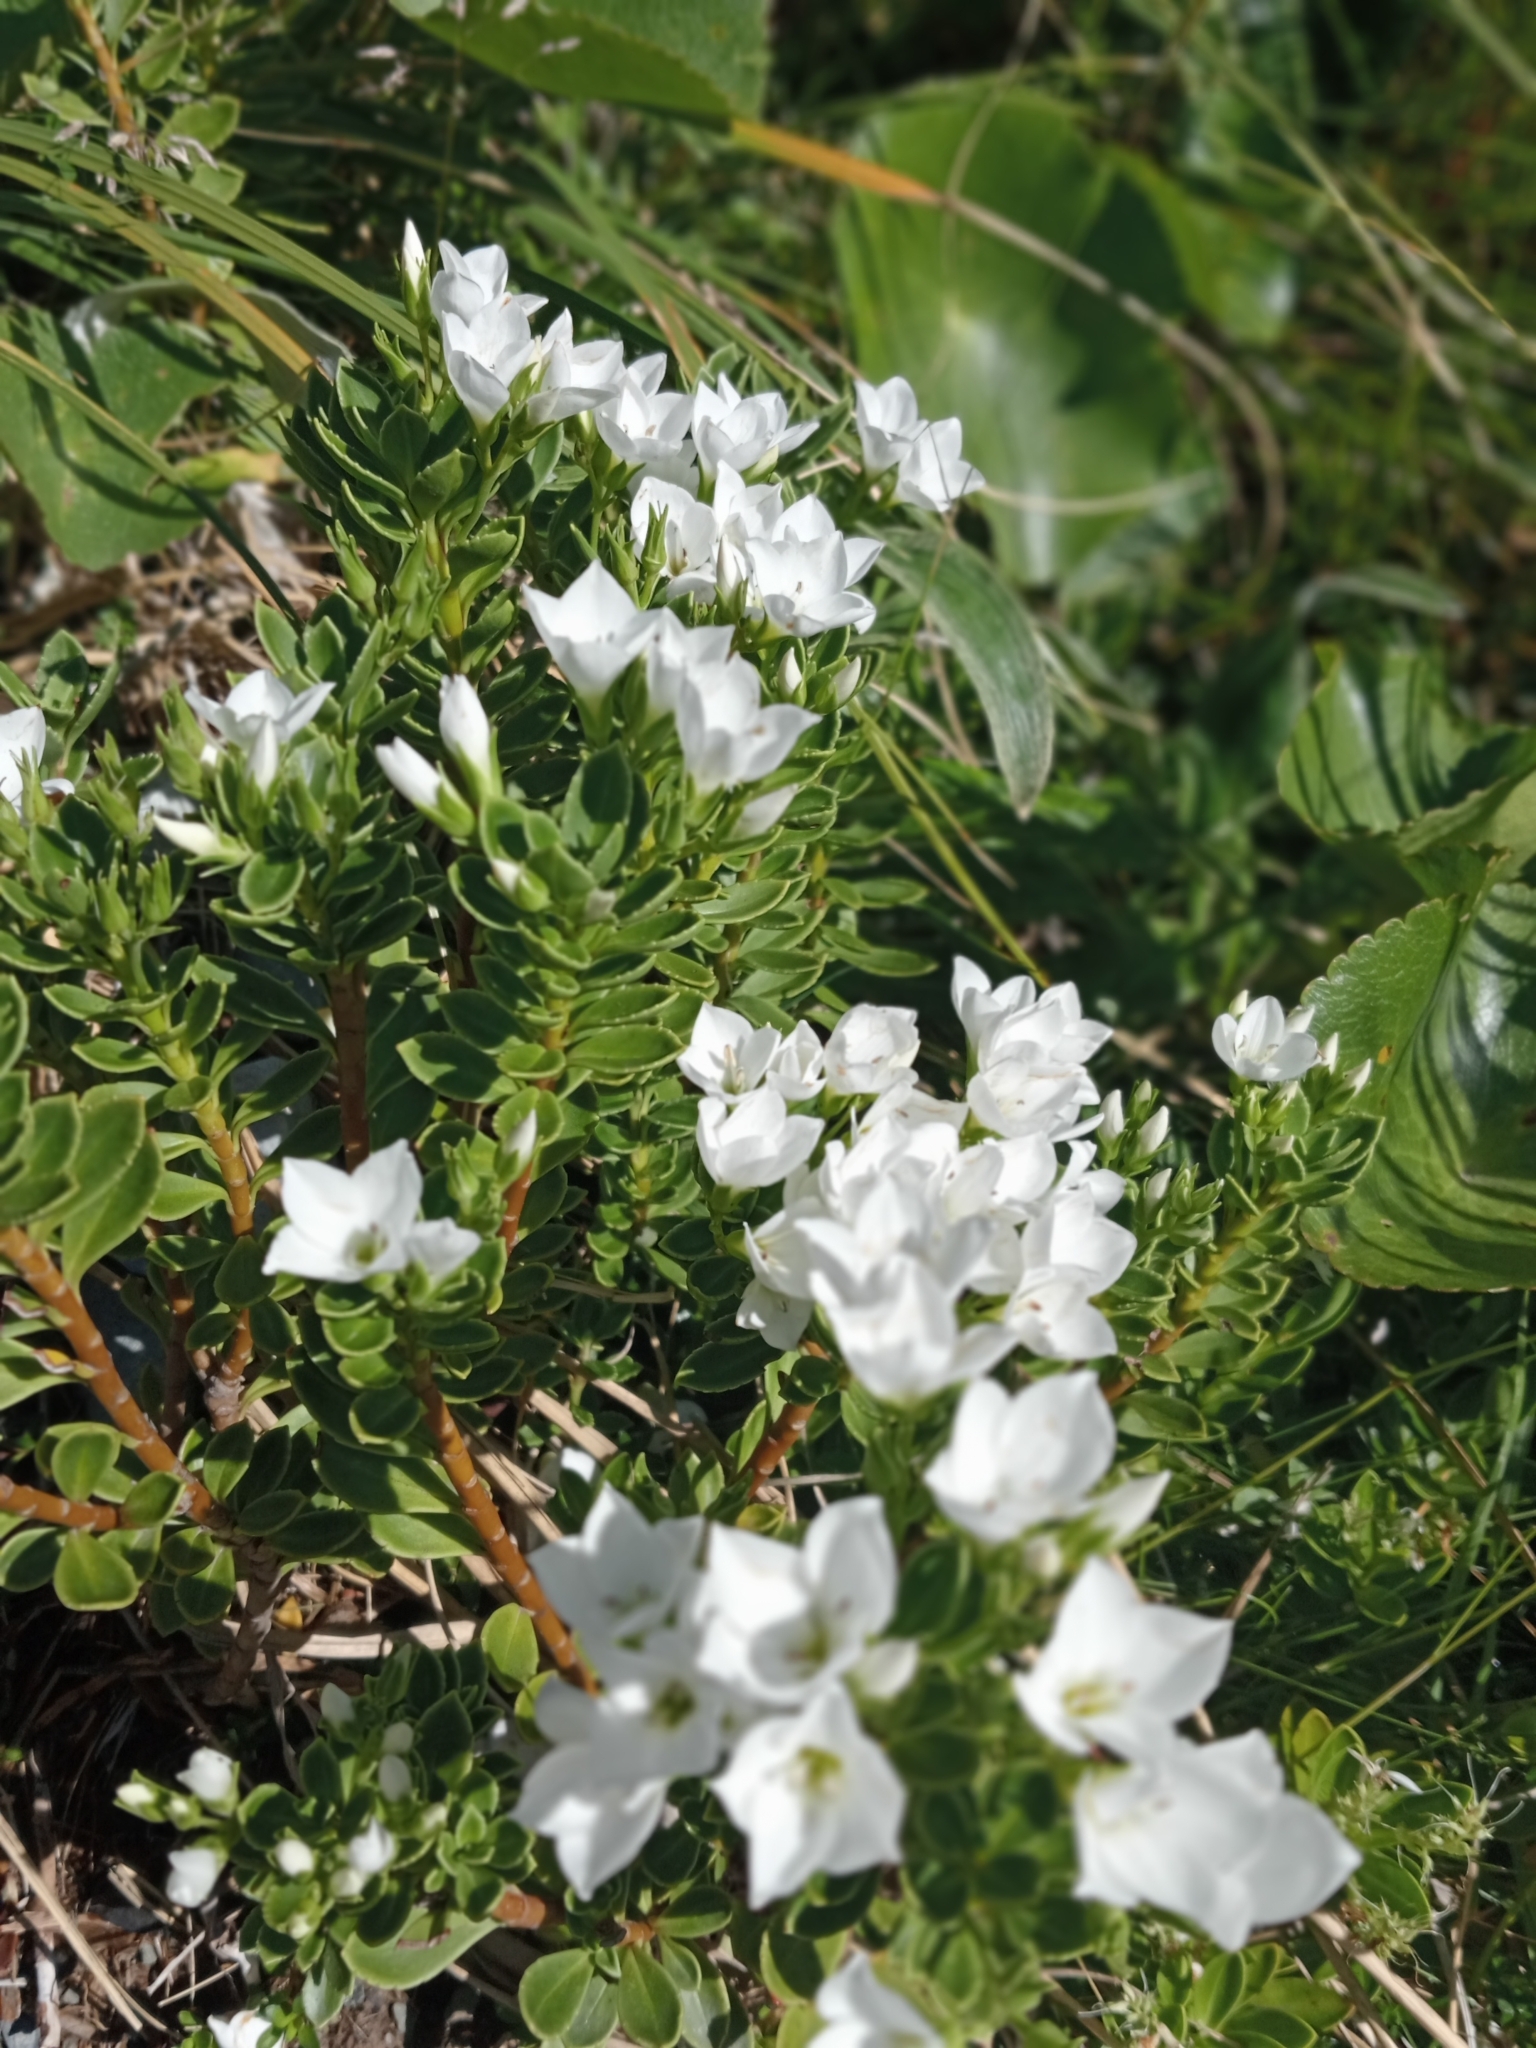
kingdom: Plantae
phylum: Tracheophyta
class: Magnoliopsida
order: Lamiales
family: Plantaginaceae
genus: Veronica
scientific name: Veronica macrantha
